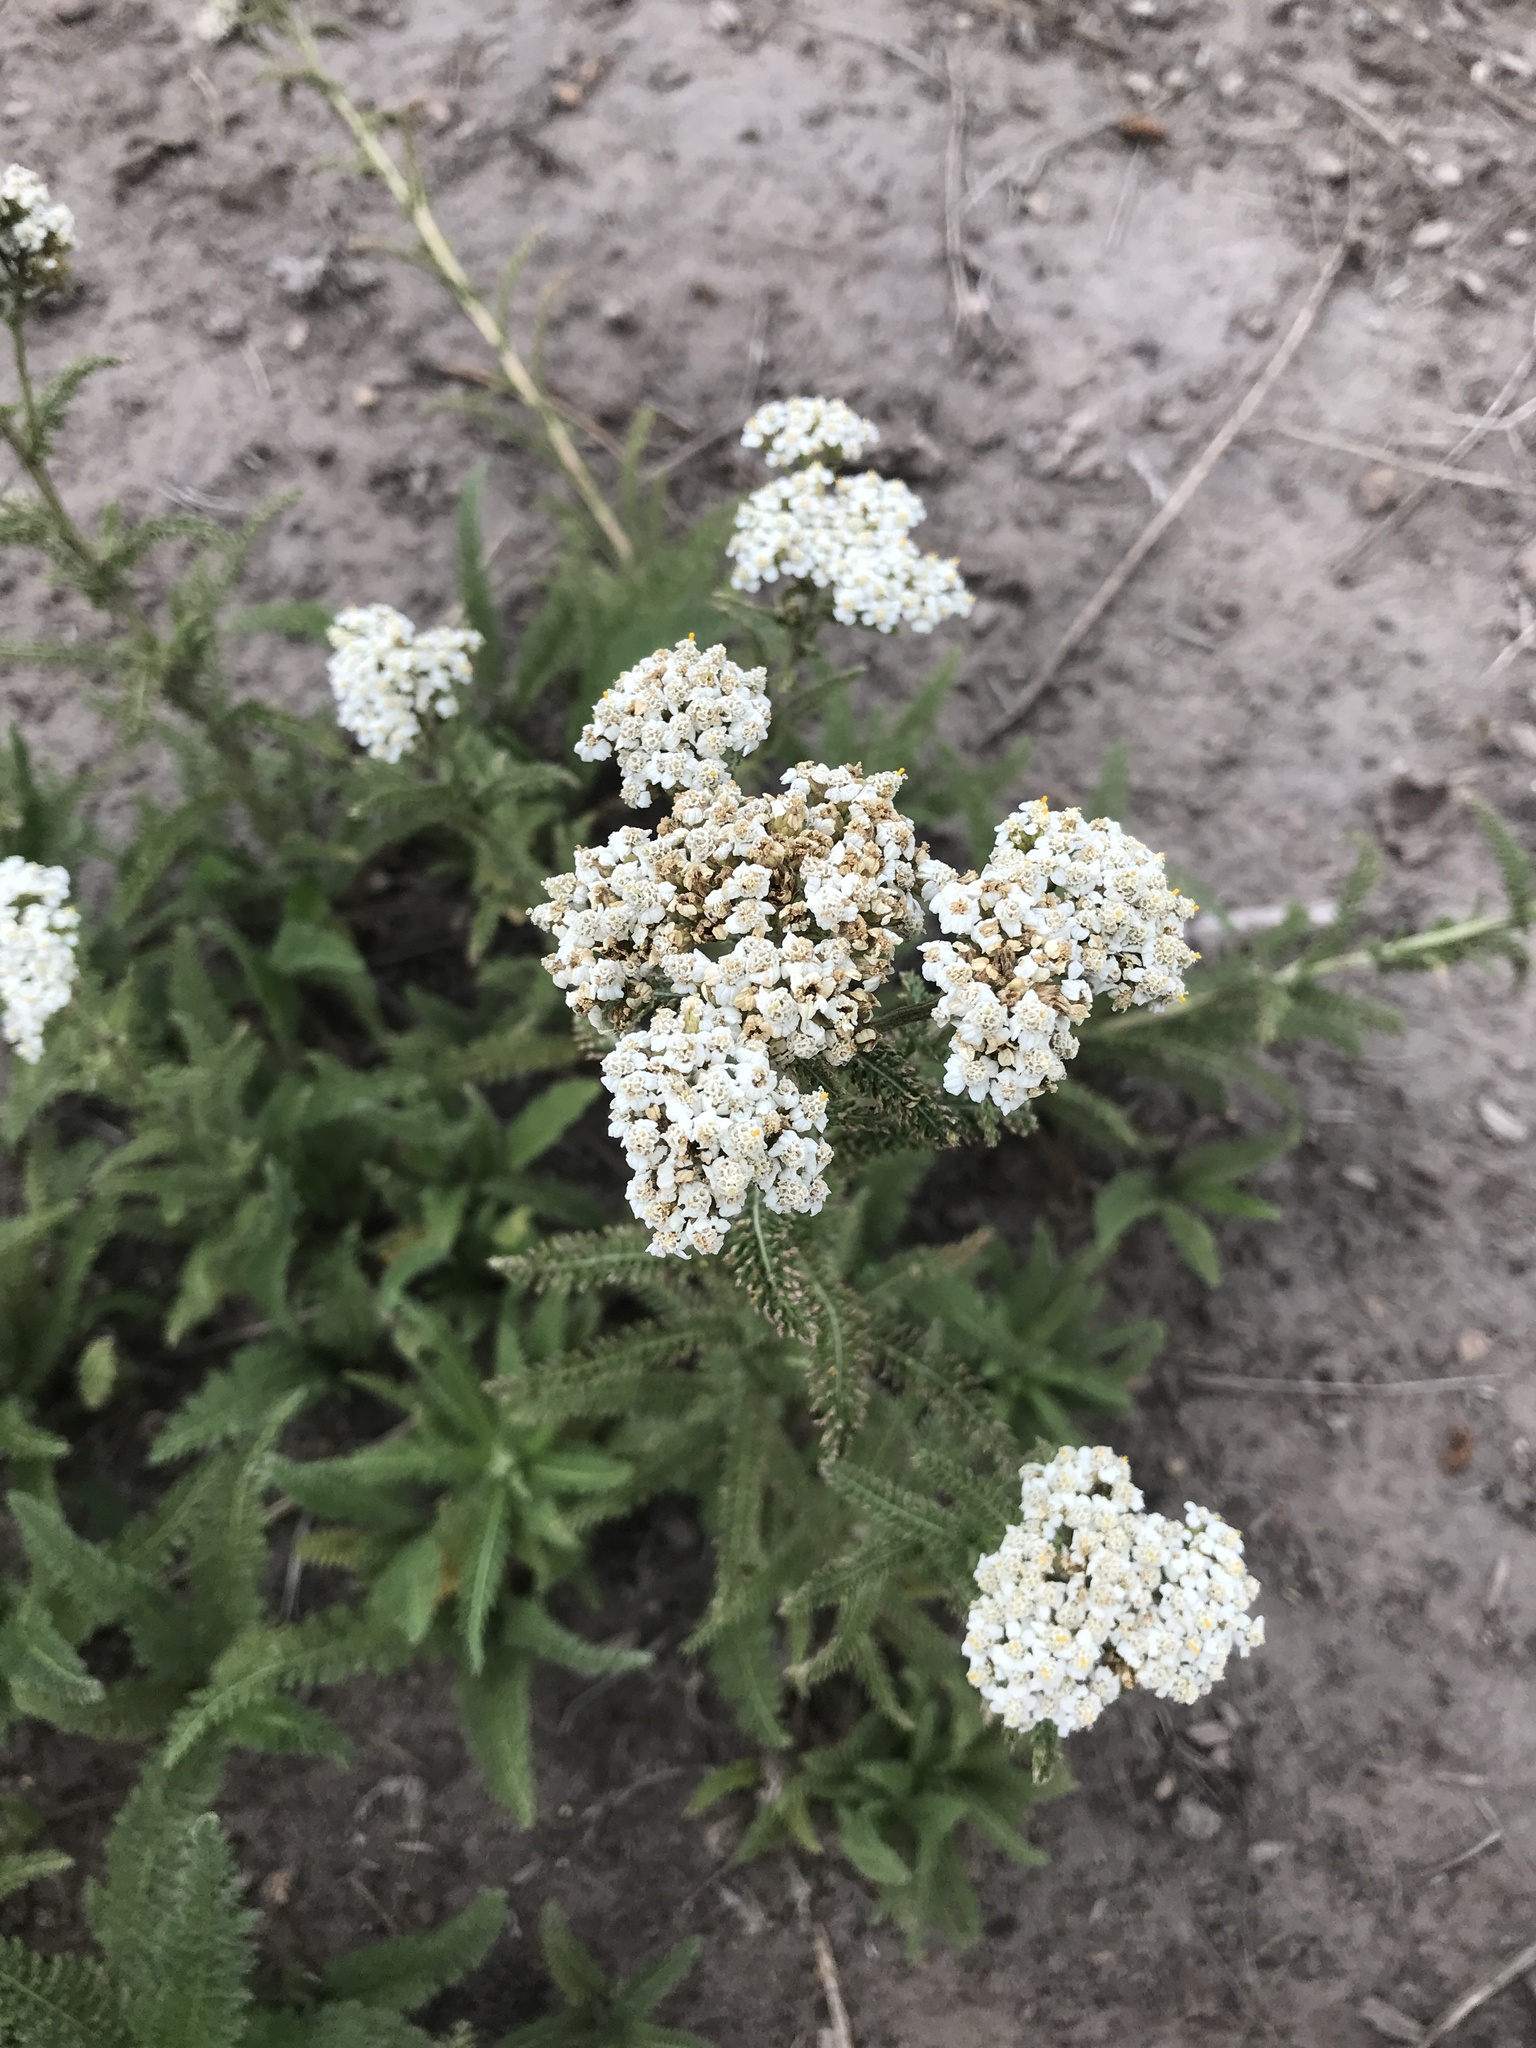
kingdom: Plantae
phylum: Tracheophyta
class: Magnoliopsida
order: Asterales
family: Asteraceae
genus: Achillea
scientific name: Achillea millefolium
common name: Yarrow
